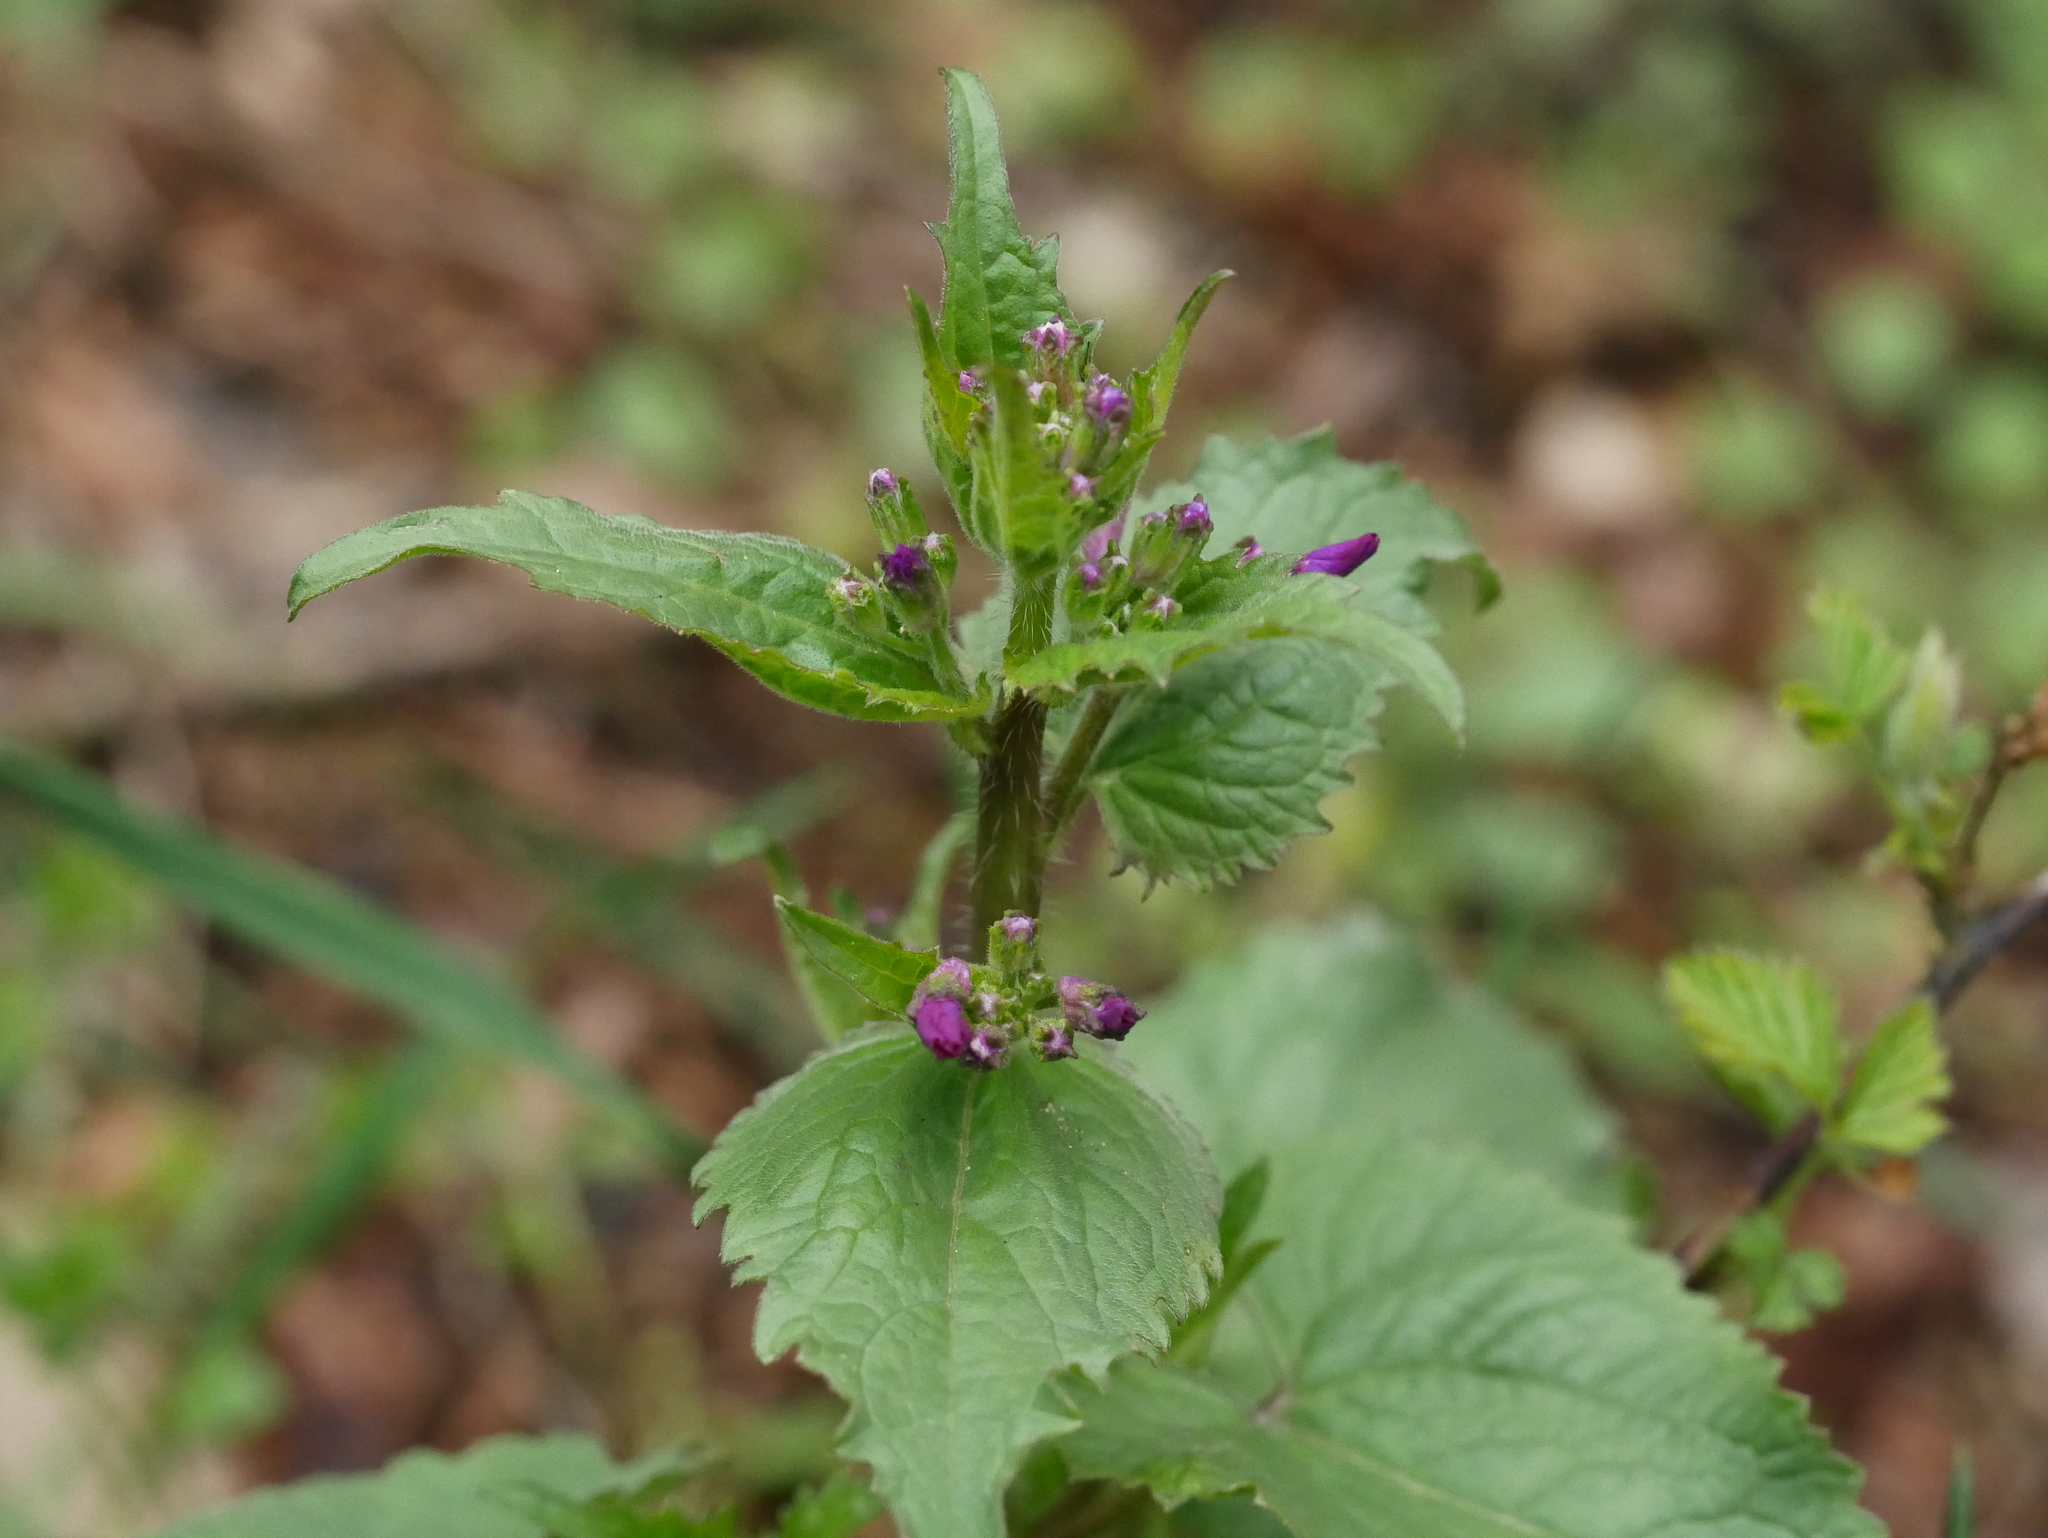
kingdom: Plantae
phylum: Tracheophyta
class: Magnoliopsida
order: Brassicales
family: Brassicaceae
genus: Lunaria
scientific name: Lunaria annua
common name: Honesty
